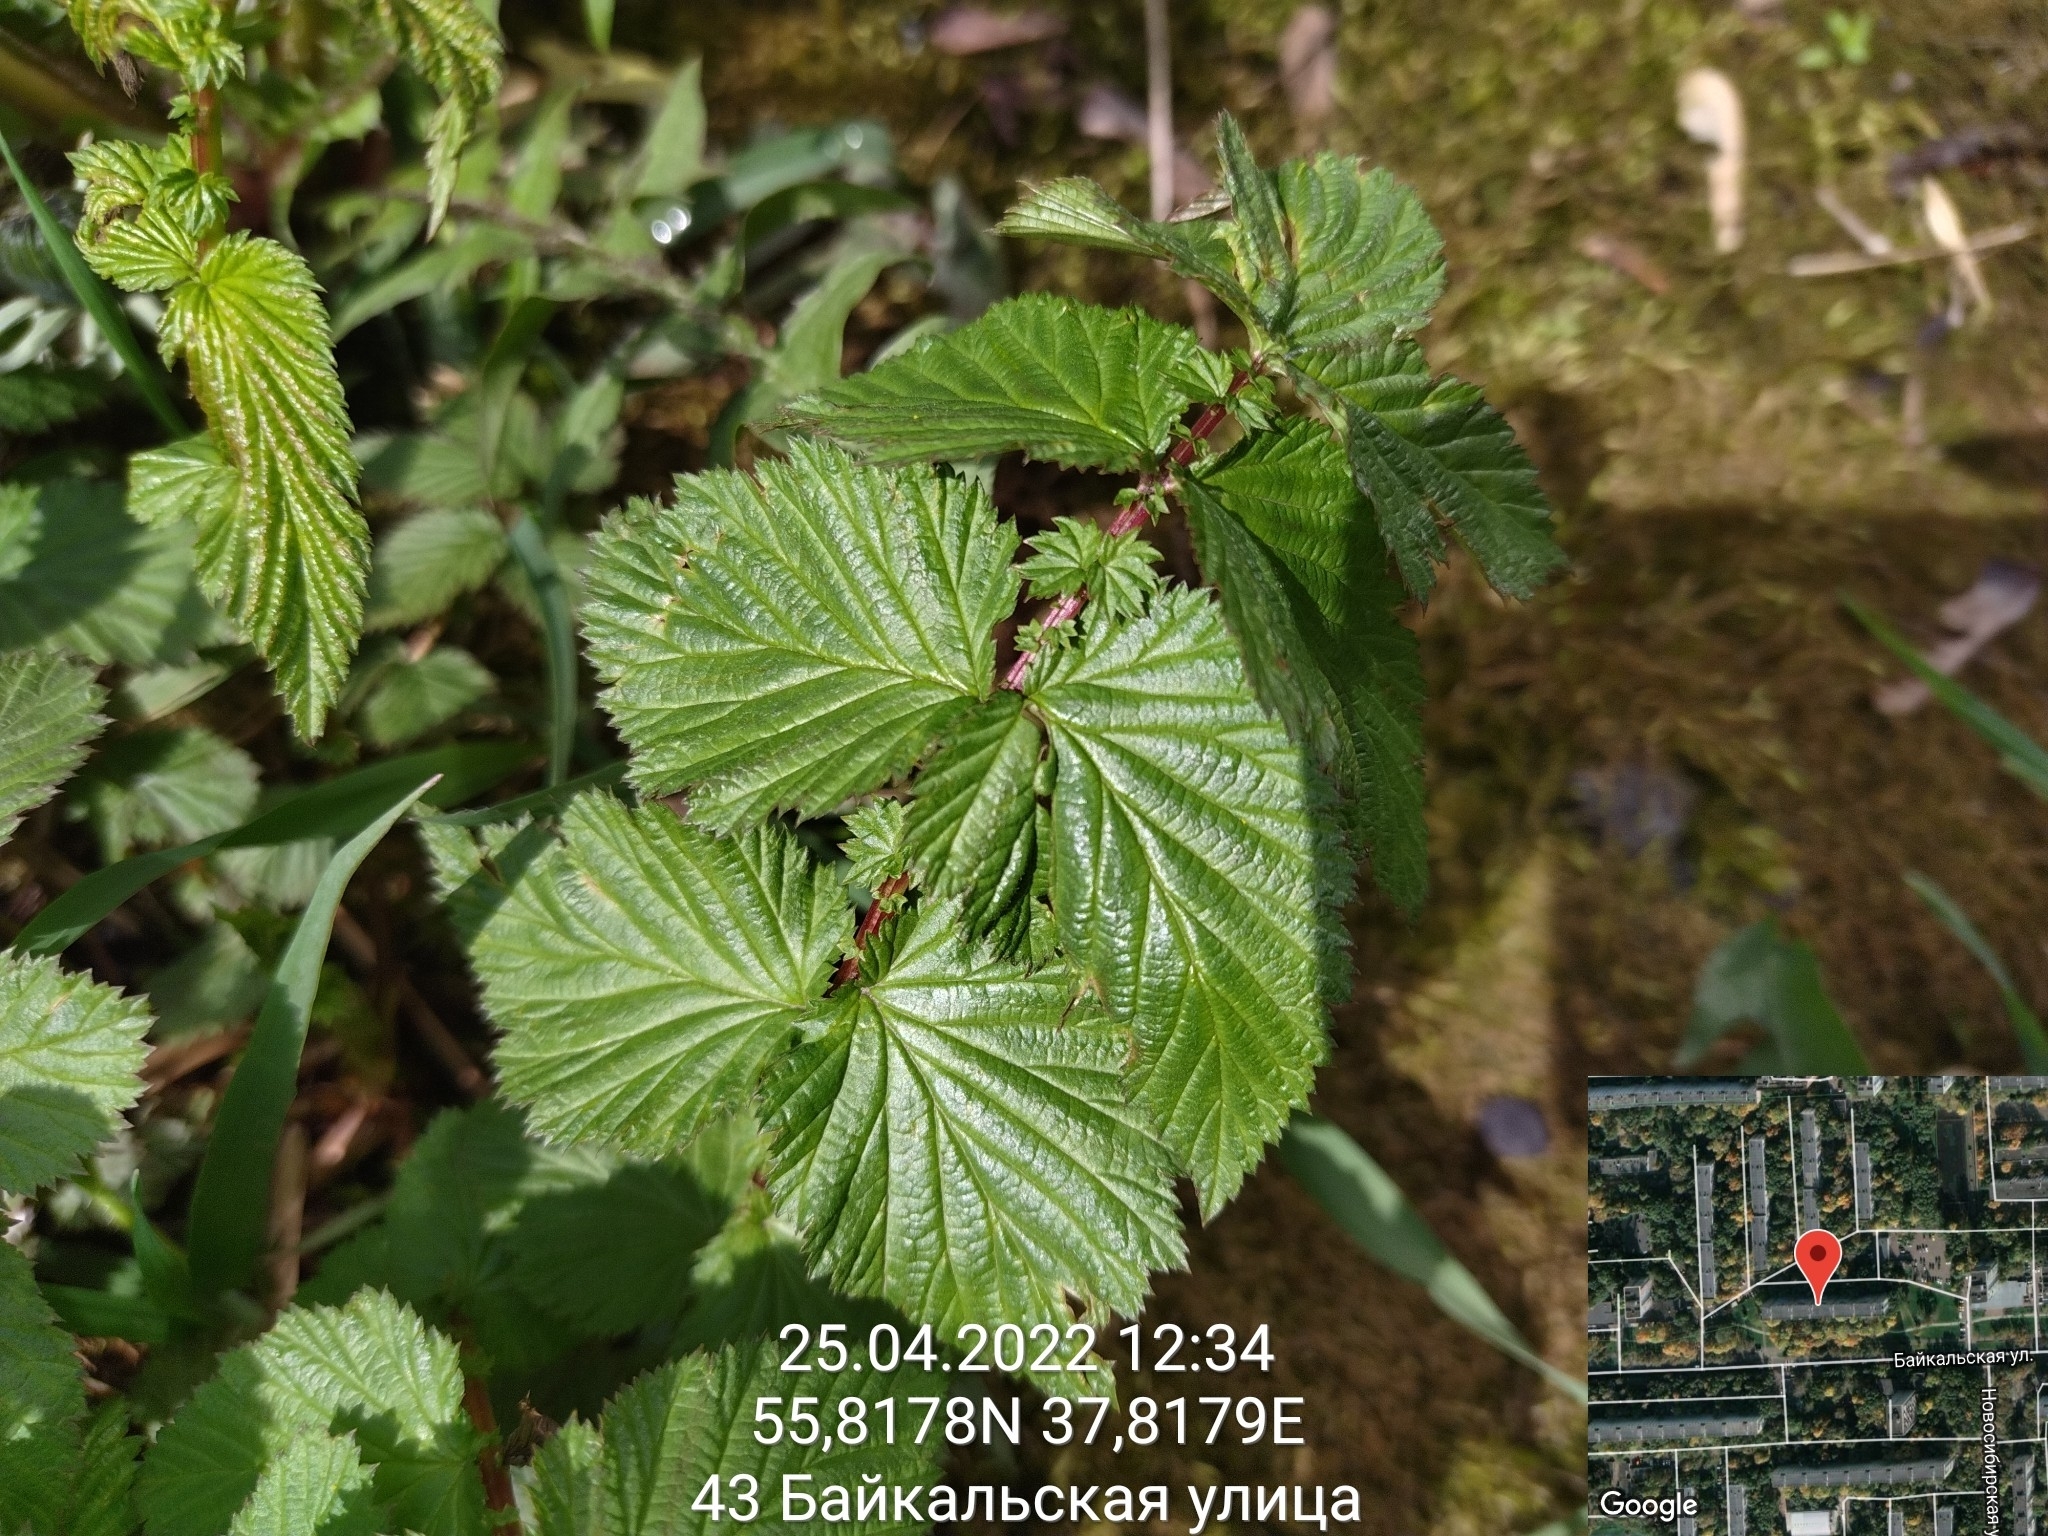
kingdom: Plantae
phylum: Tracheophyta
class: Magnoliopsida
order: Rosales
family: Rosaceae
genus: Filipendula
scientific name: Filipendula ulmaria
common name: Meadowsweet
